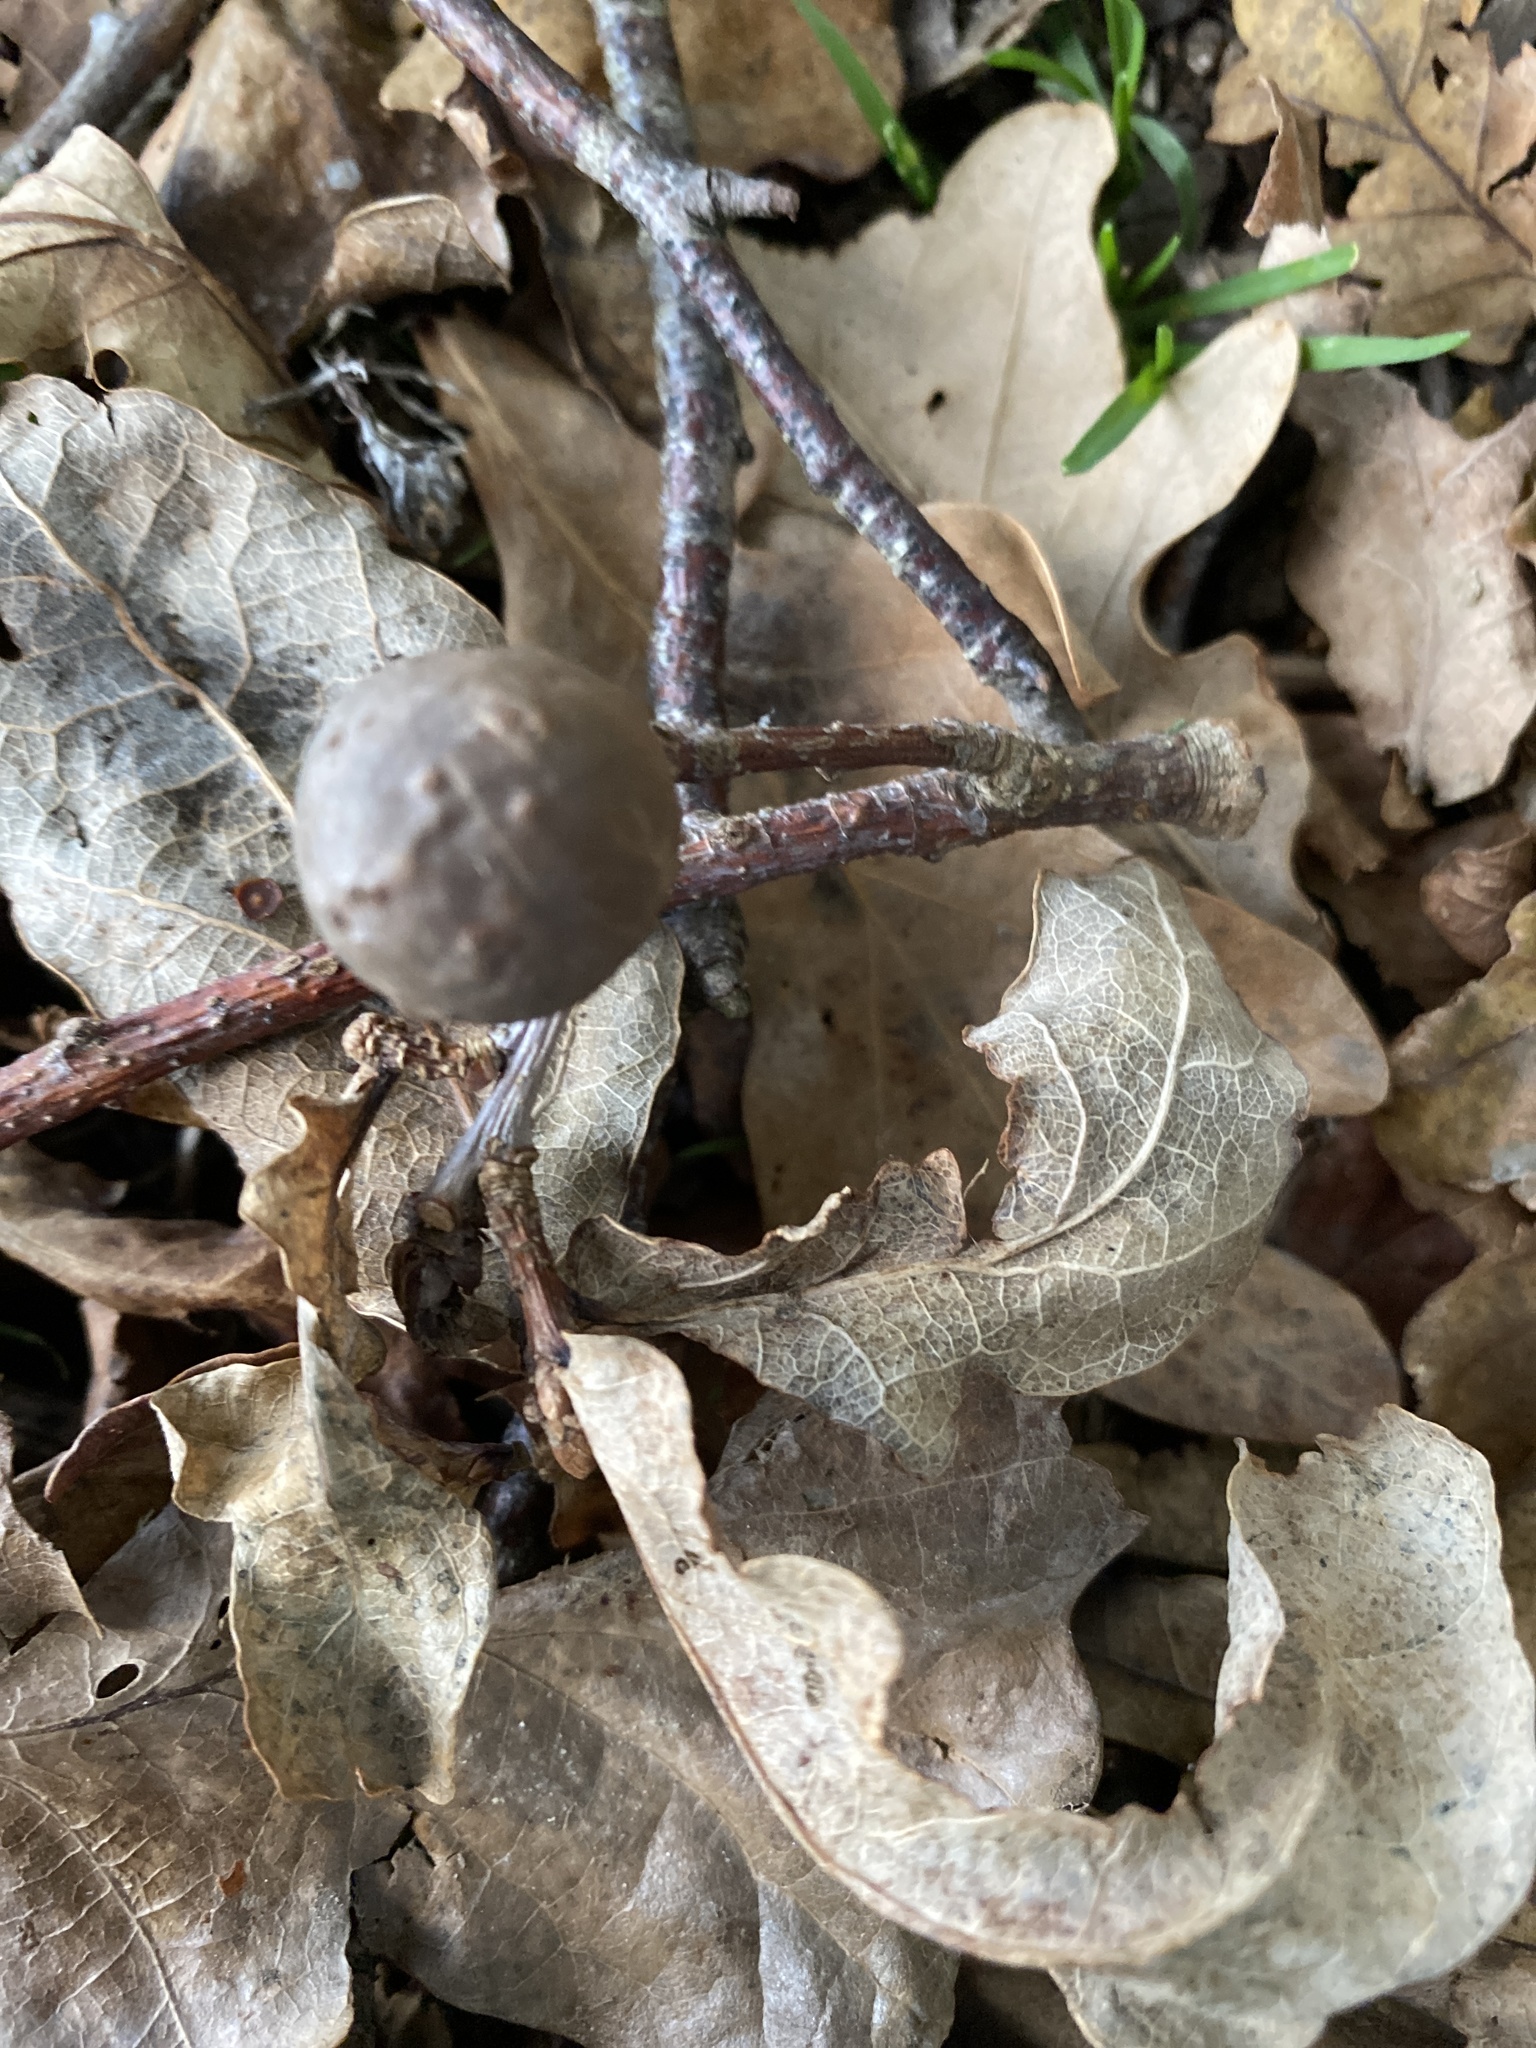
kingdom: Animalia
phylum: Arthropoda
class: Insecta
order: Hymenoptera
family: Cynipidae
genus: Andricus
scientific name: Andricus kollari
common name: Marble gall
